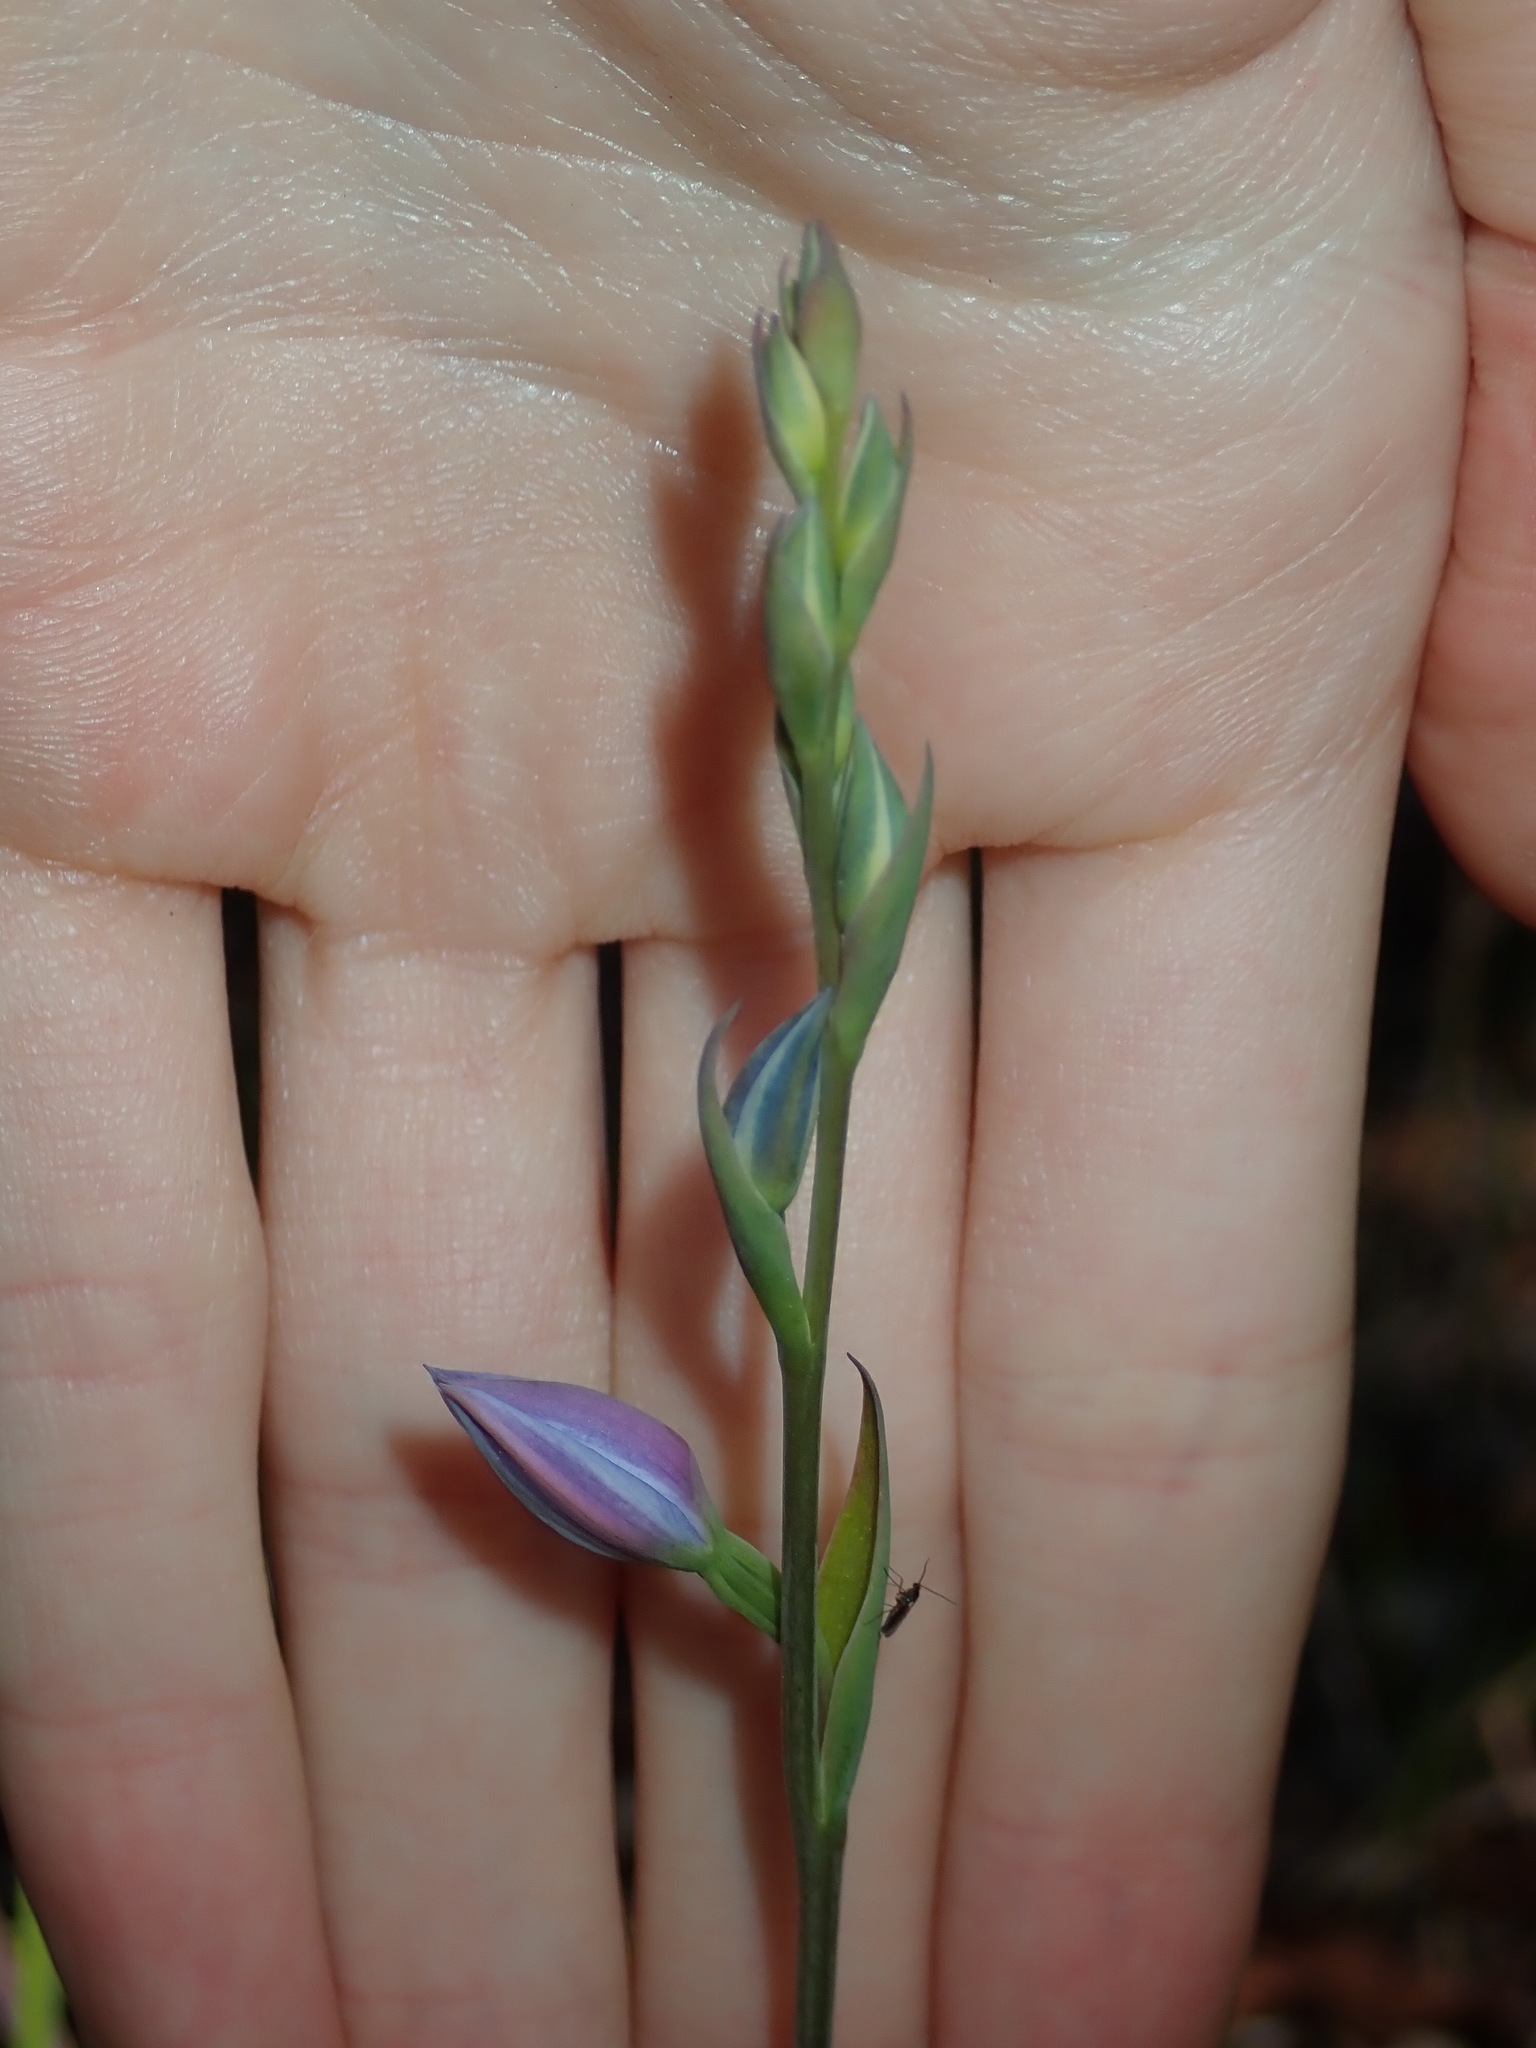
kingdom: Plantae
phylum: Tracheophyta
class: Liliopsida
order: Asparagales
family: Orchidaceae
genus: Thelymitra
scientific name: Thelymitra ixioides
